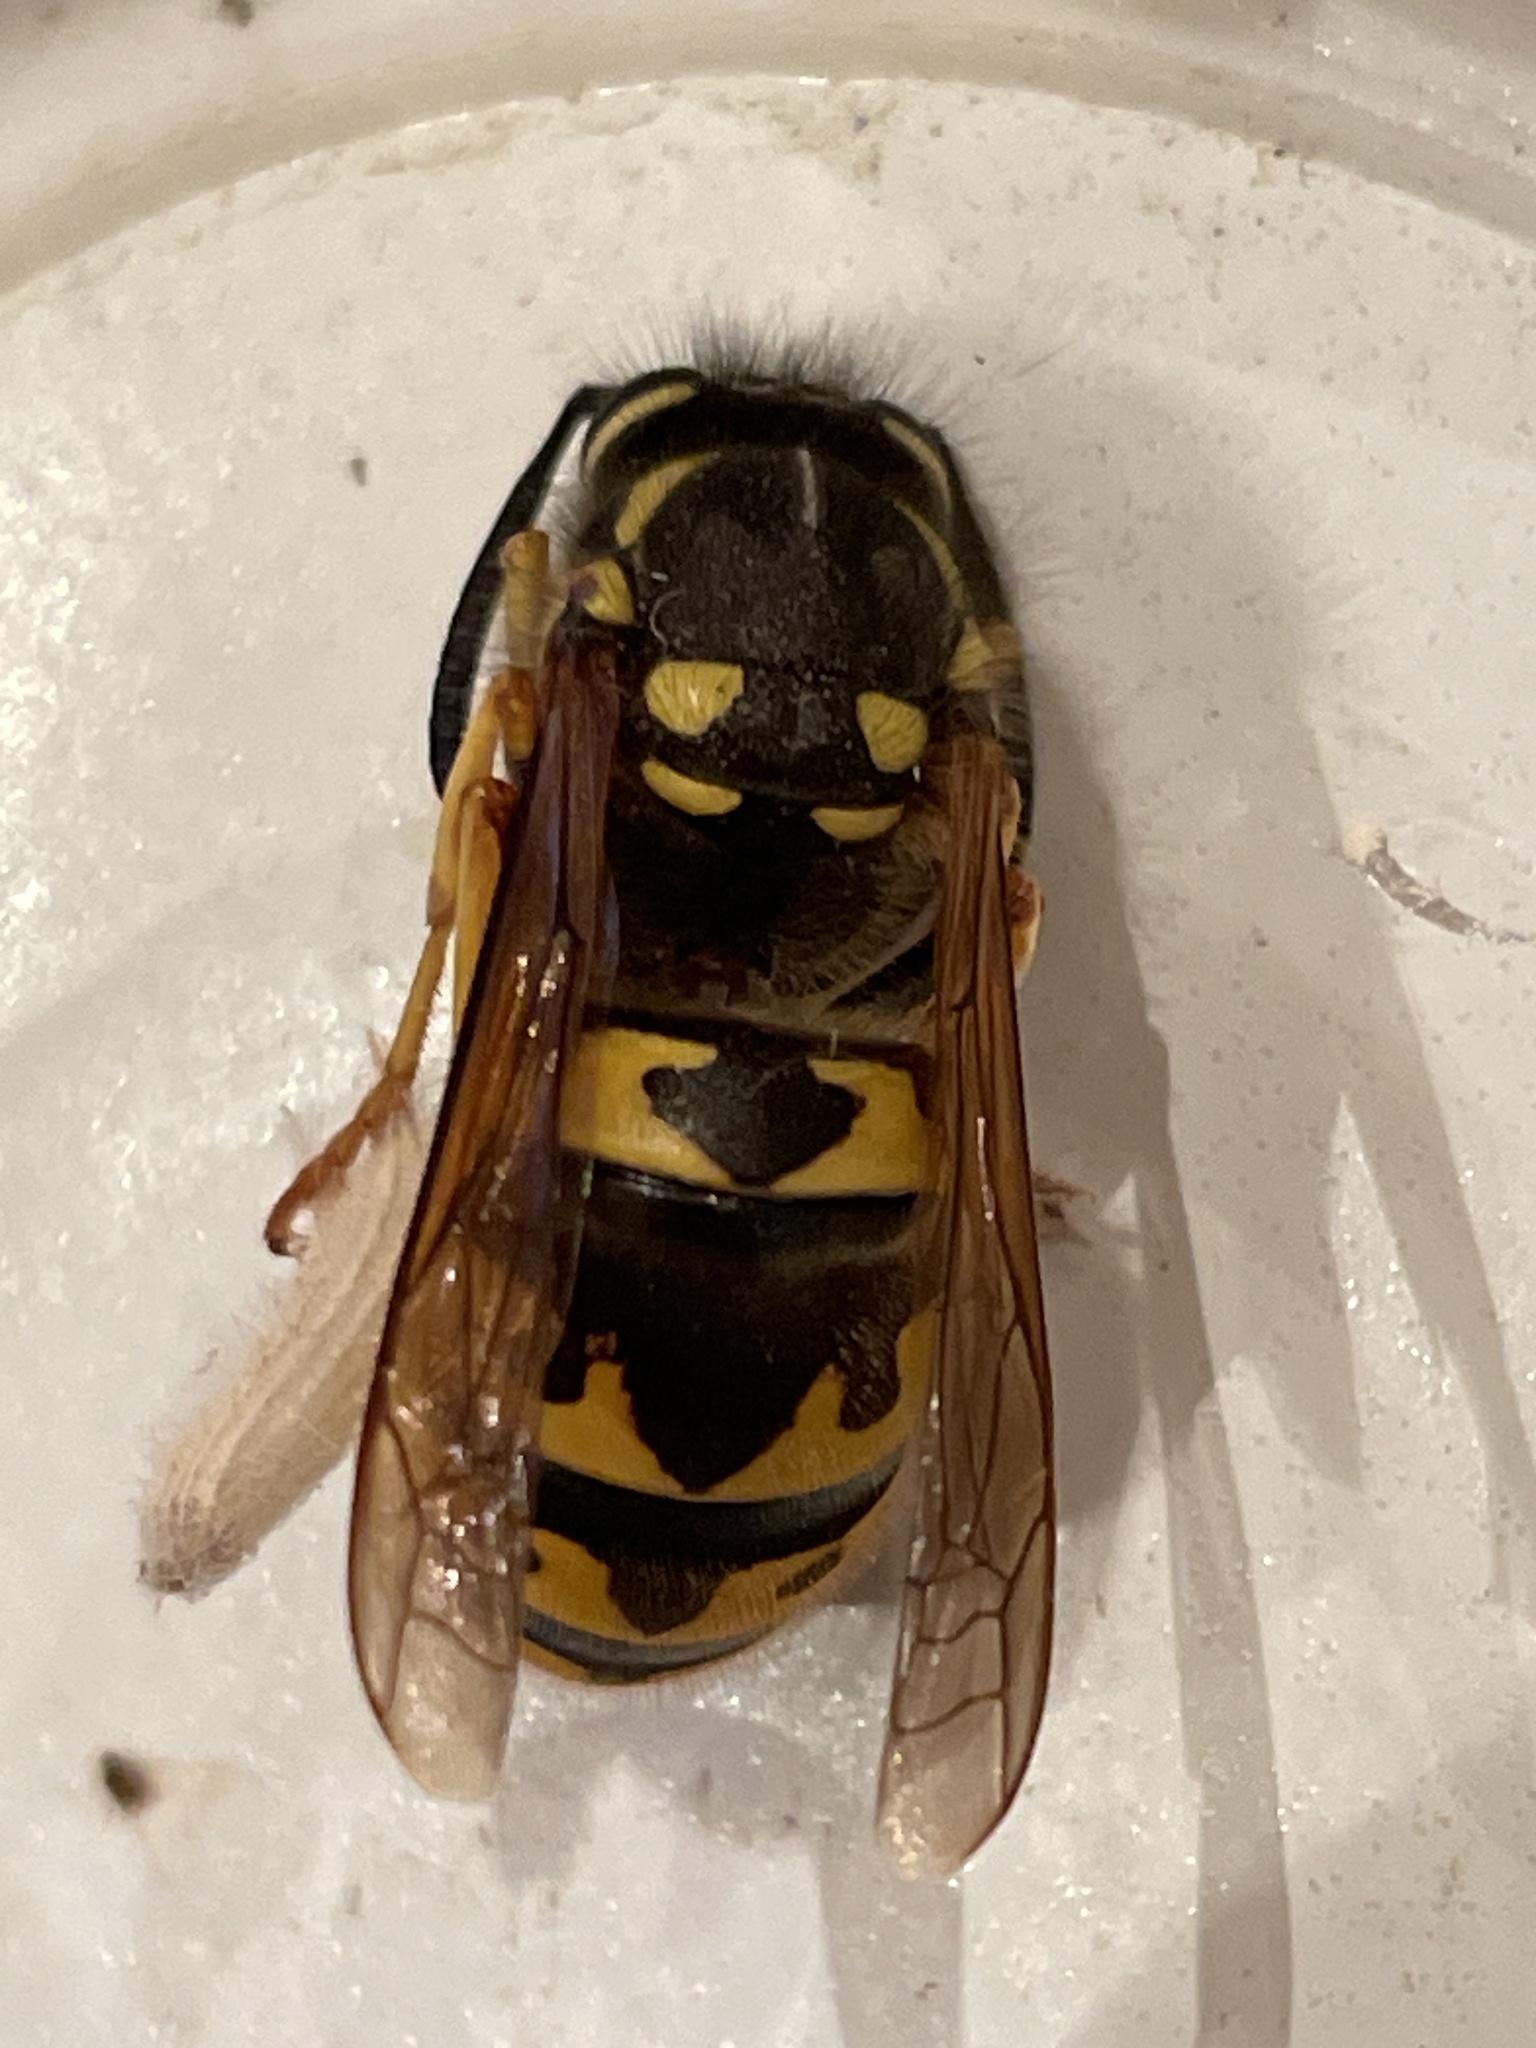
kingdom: Animalia
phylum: Arthropoda
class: Insecta
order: Hymenoptera
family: Vespidae
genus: Vespula
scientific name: Vespula germanica
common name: German wasp
